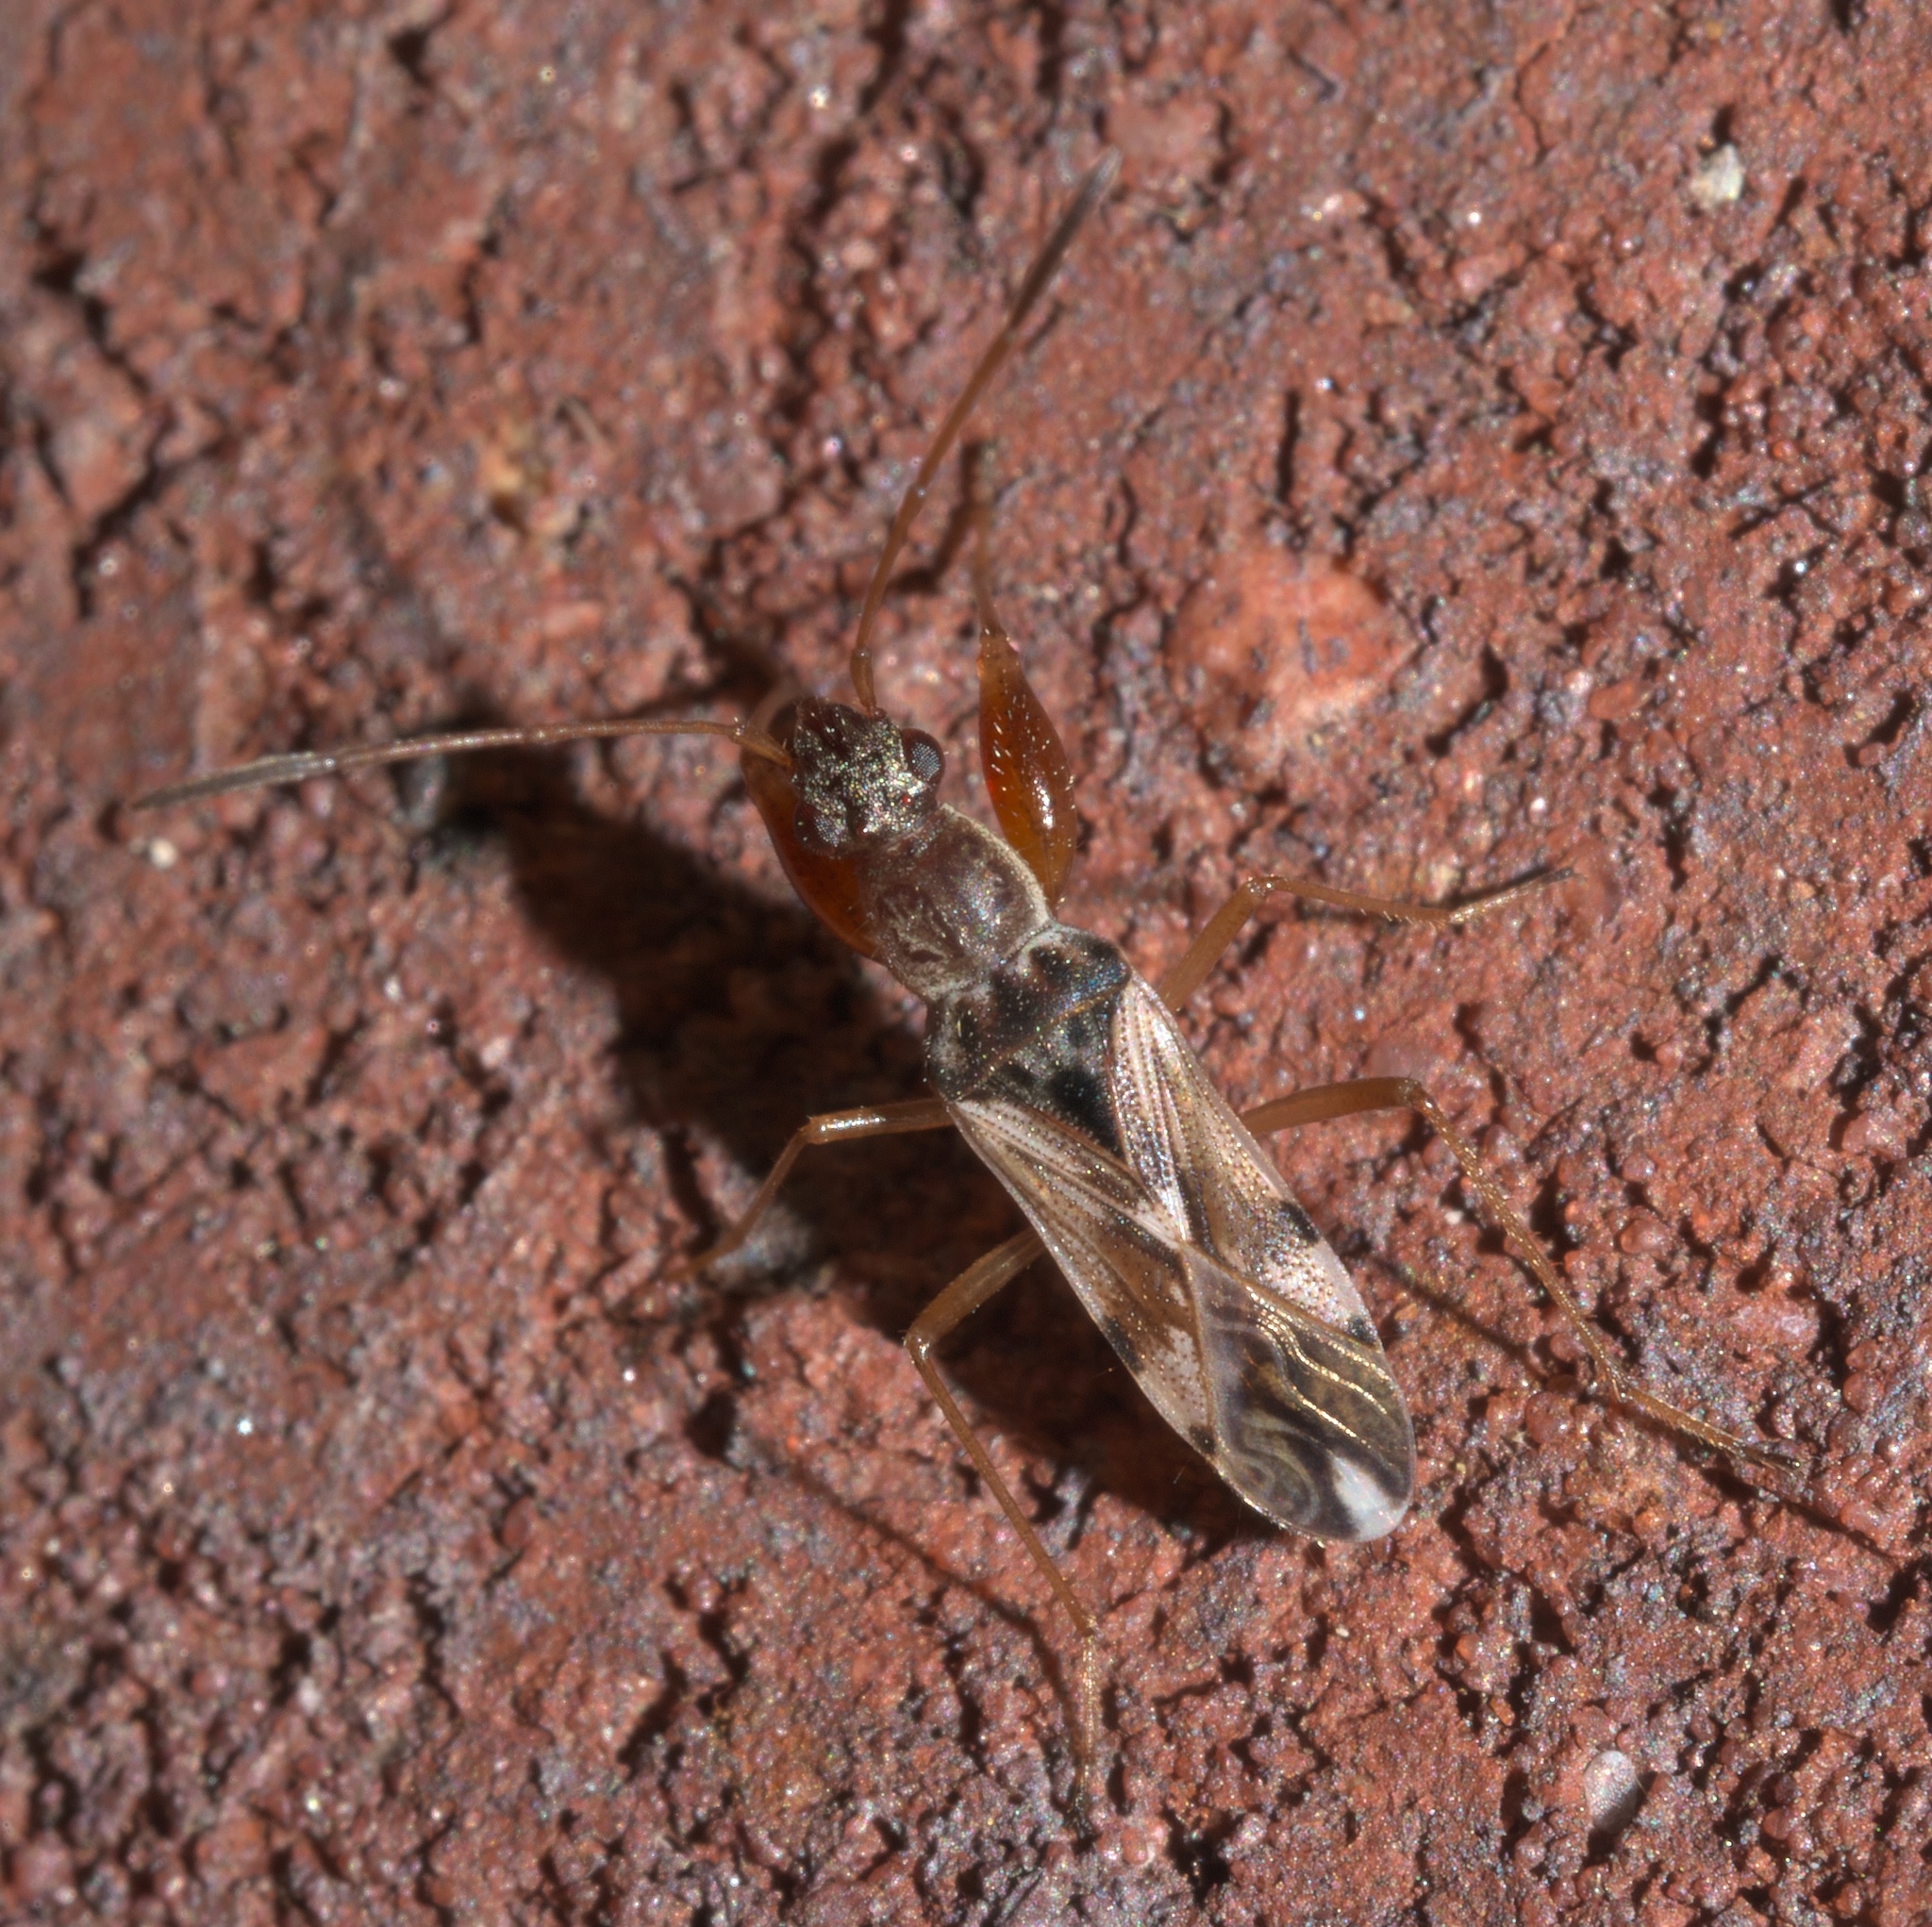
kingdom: Animalia
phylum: Arthropoda
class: Insecta
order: Hemiptera
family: Rhyparochromidae
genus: Neopamera
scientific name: Neopamera bilobata
